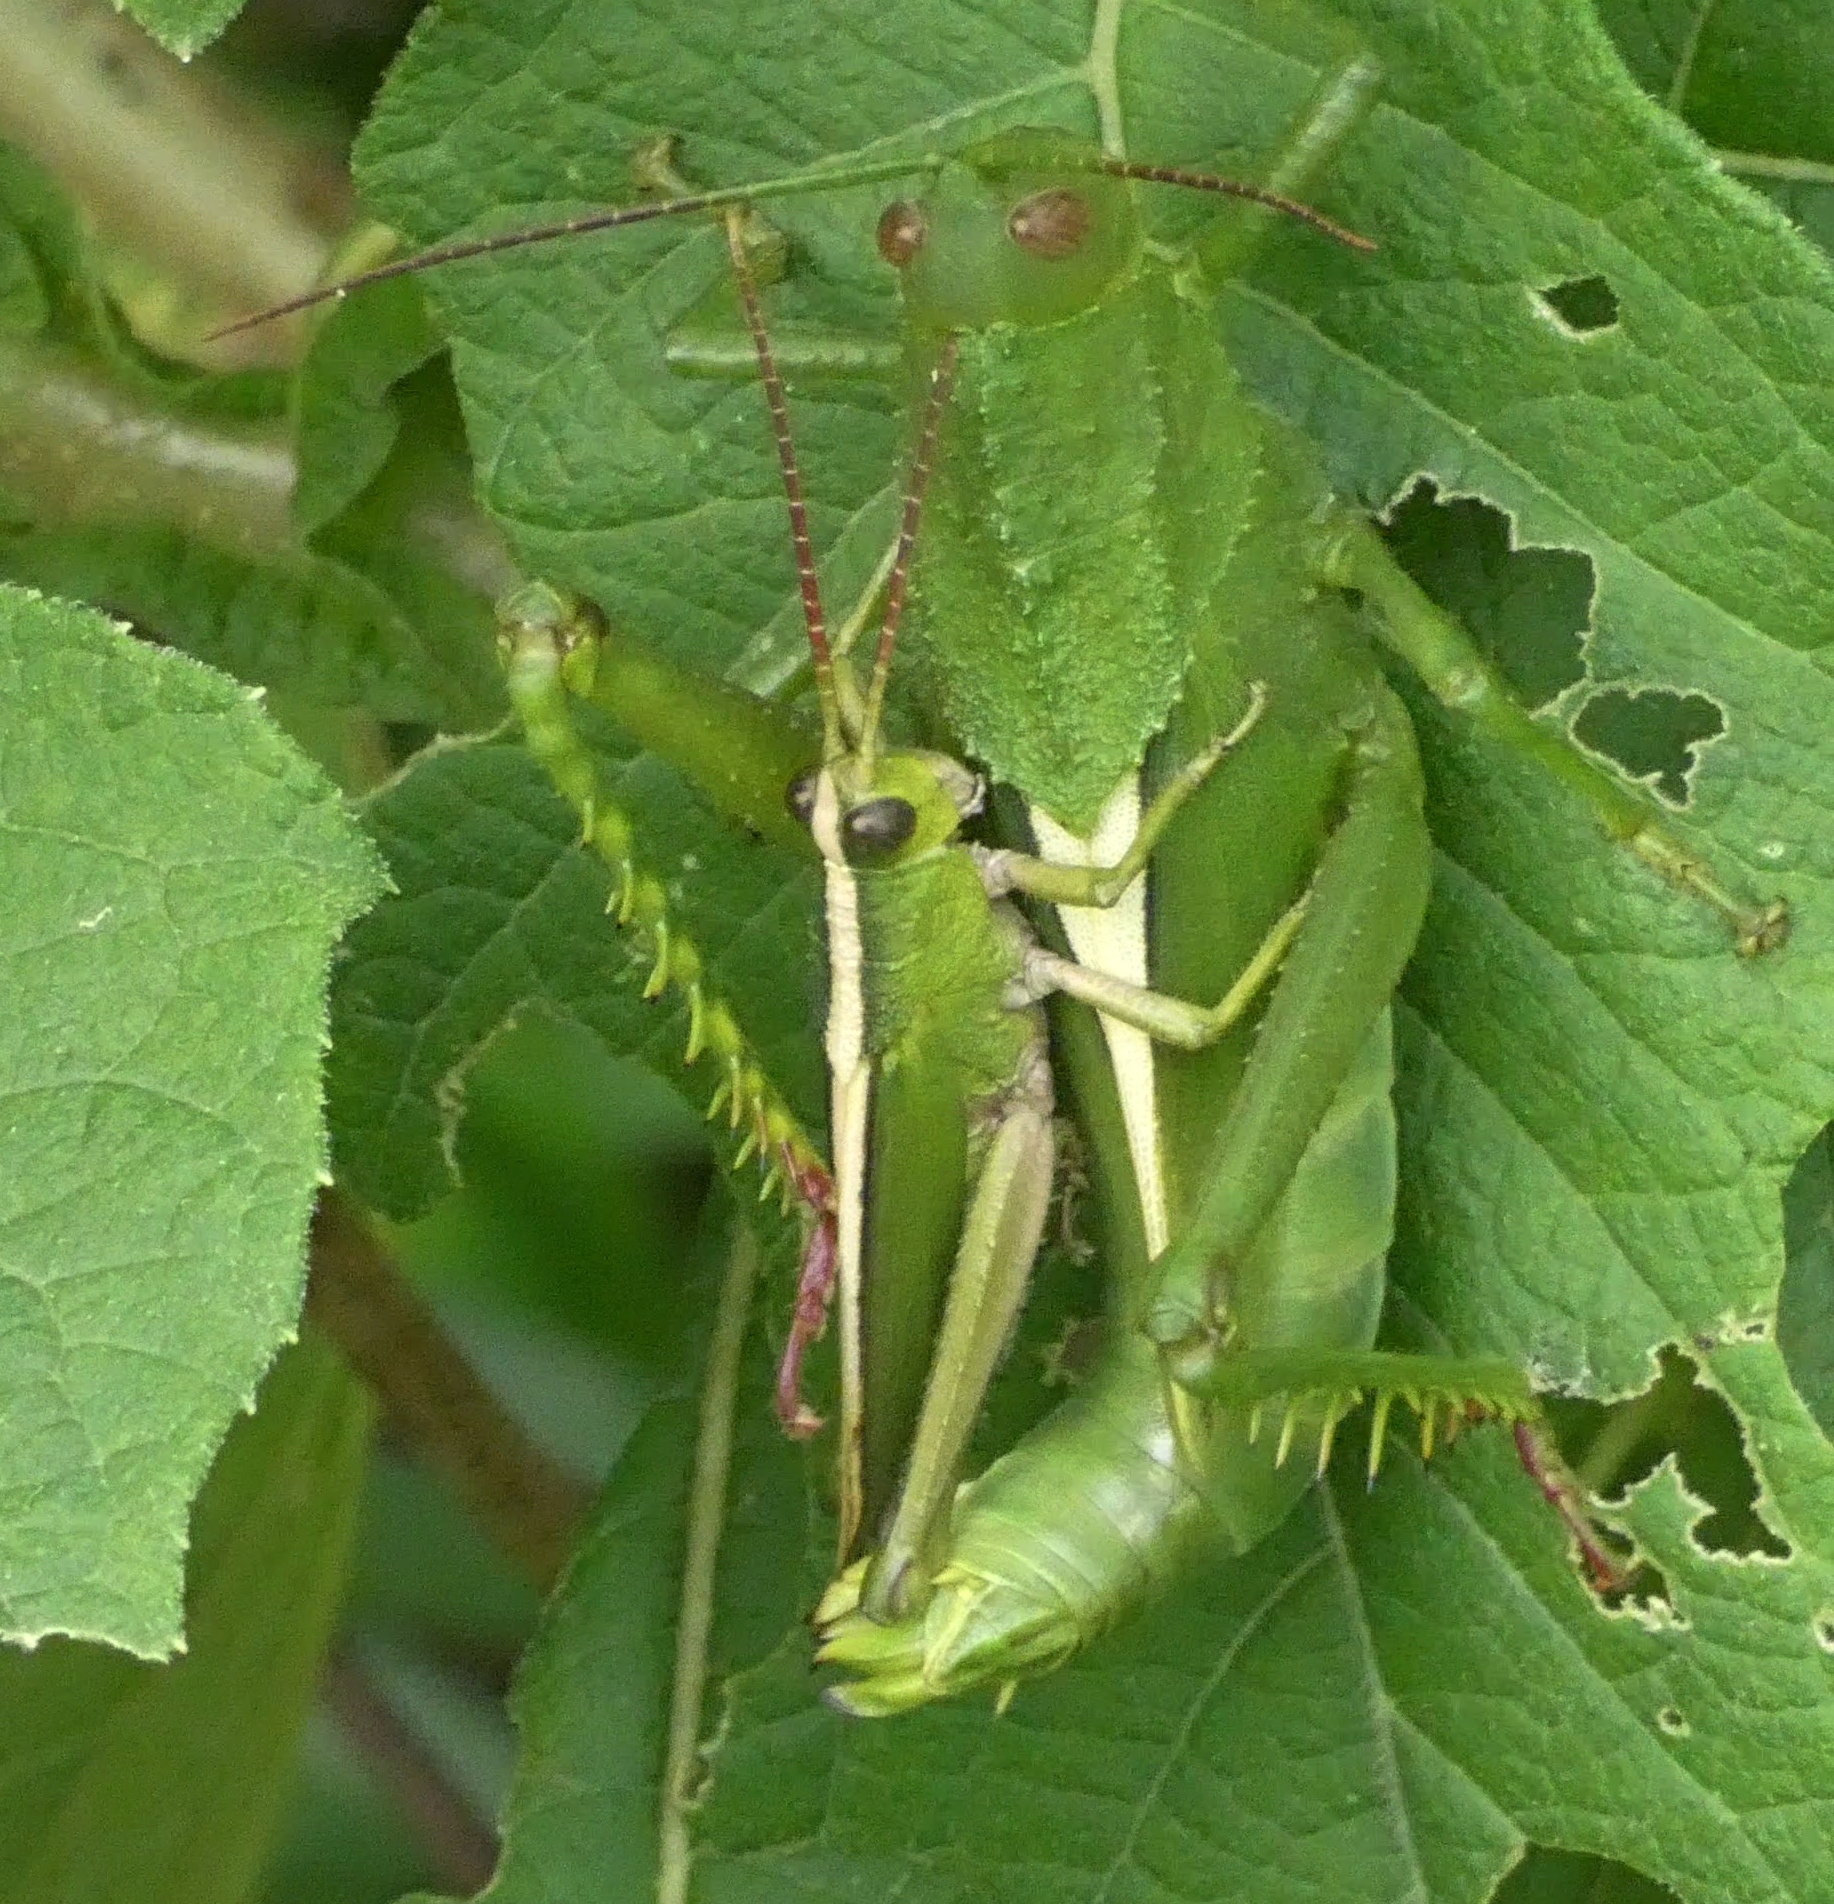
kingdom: Animalia
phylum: Arthropoda
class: Insecta
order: Orthoptera
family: Romaleidae
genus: Agriacris
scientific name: Agriacris auripennis
